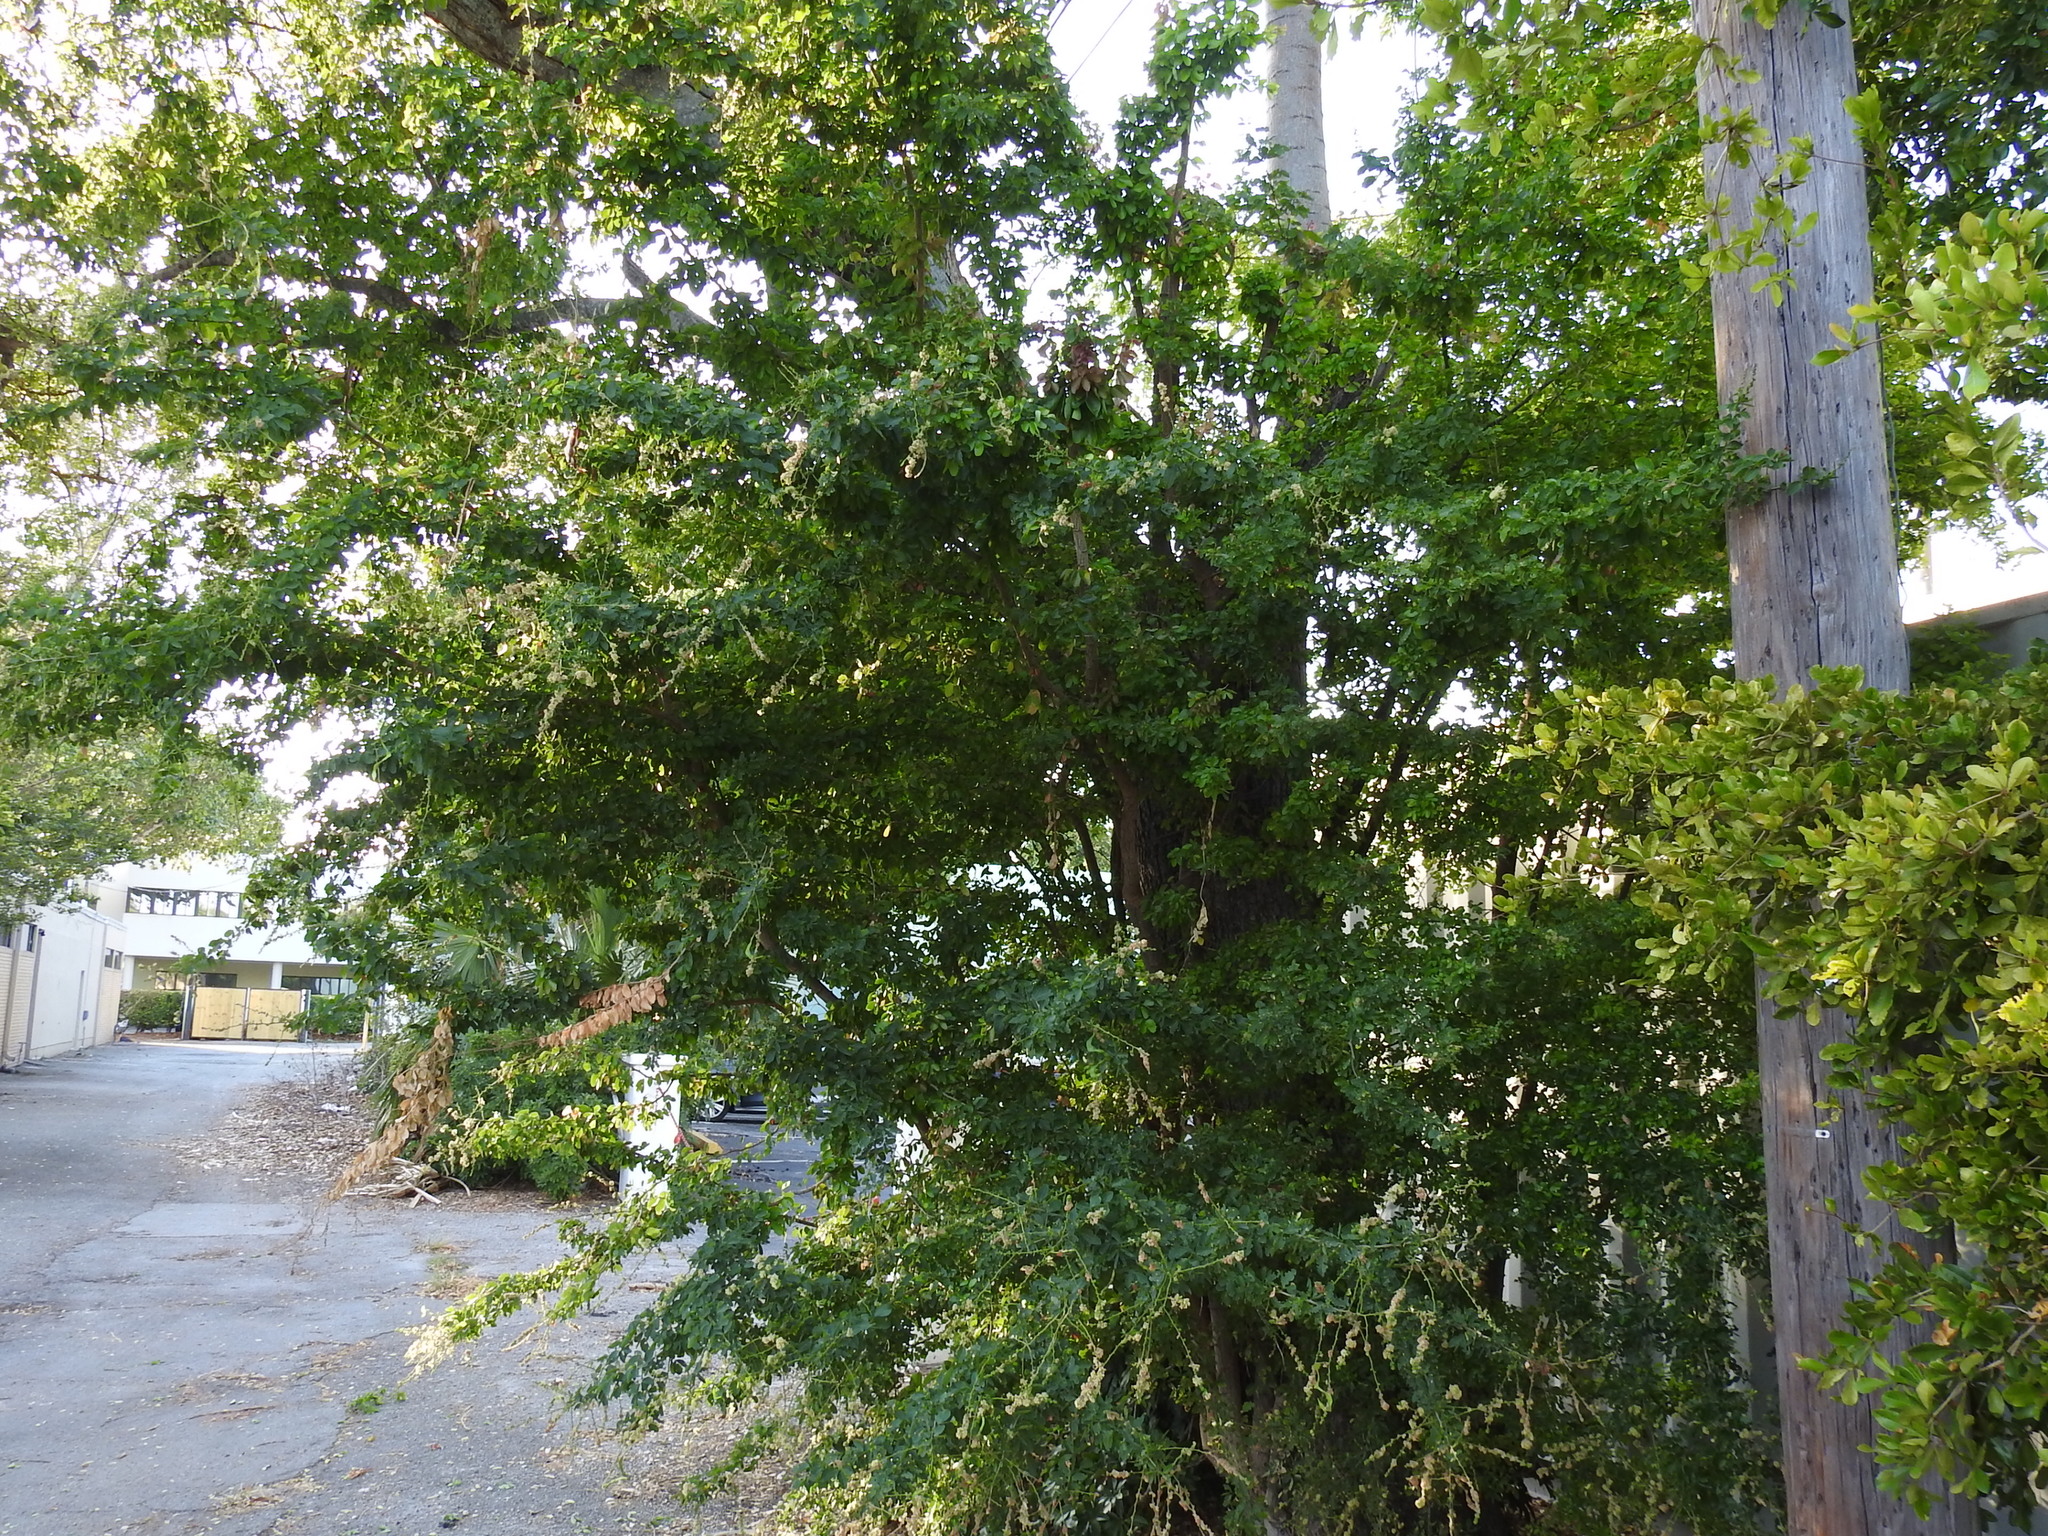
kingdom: Plantae
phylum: Tracheophyta
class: Magnoliopsida
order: Fabales
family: Fabaceae
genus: Pithecellobium
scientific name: Pithecellobium keyense
